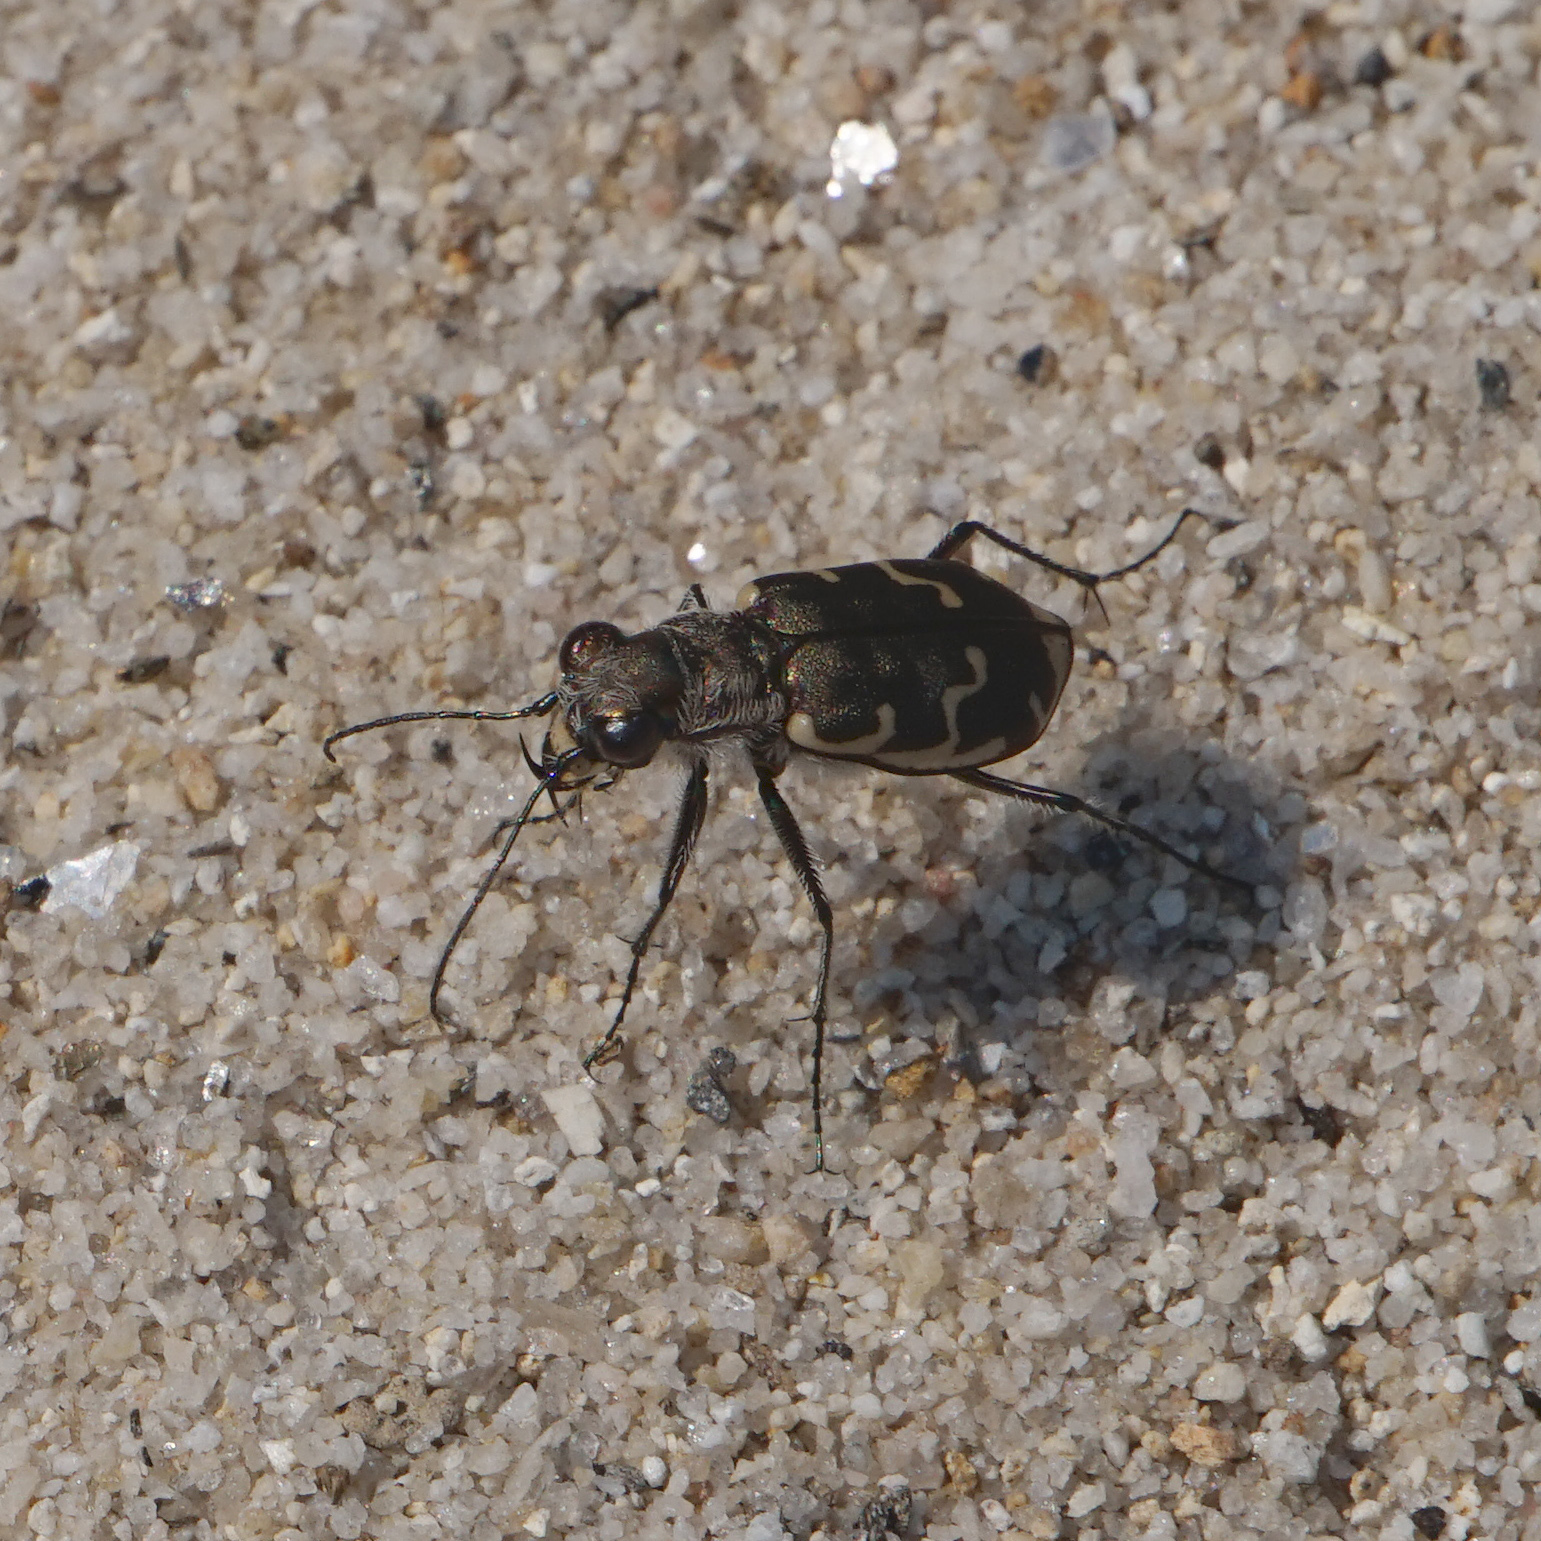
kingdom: Animalia
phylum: Arthropoda
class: Insecta
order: Coleoptera
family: Carabidae
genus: Cicindela
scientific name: Cicindela repanda
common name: Bronzed tiger beetle
